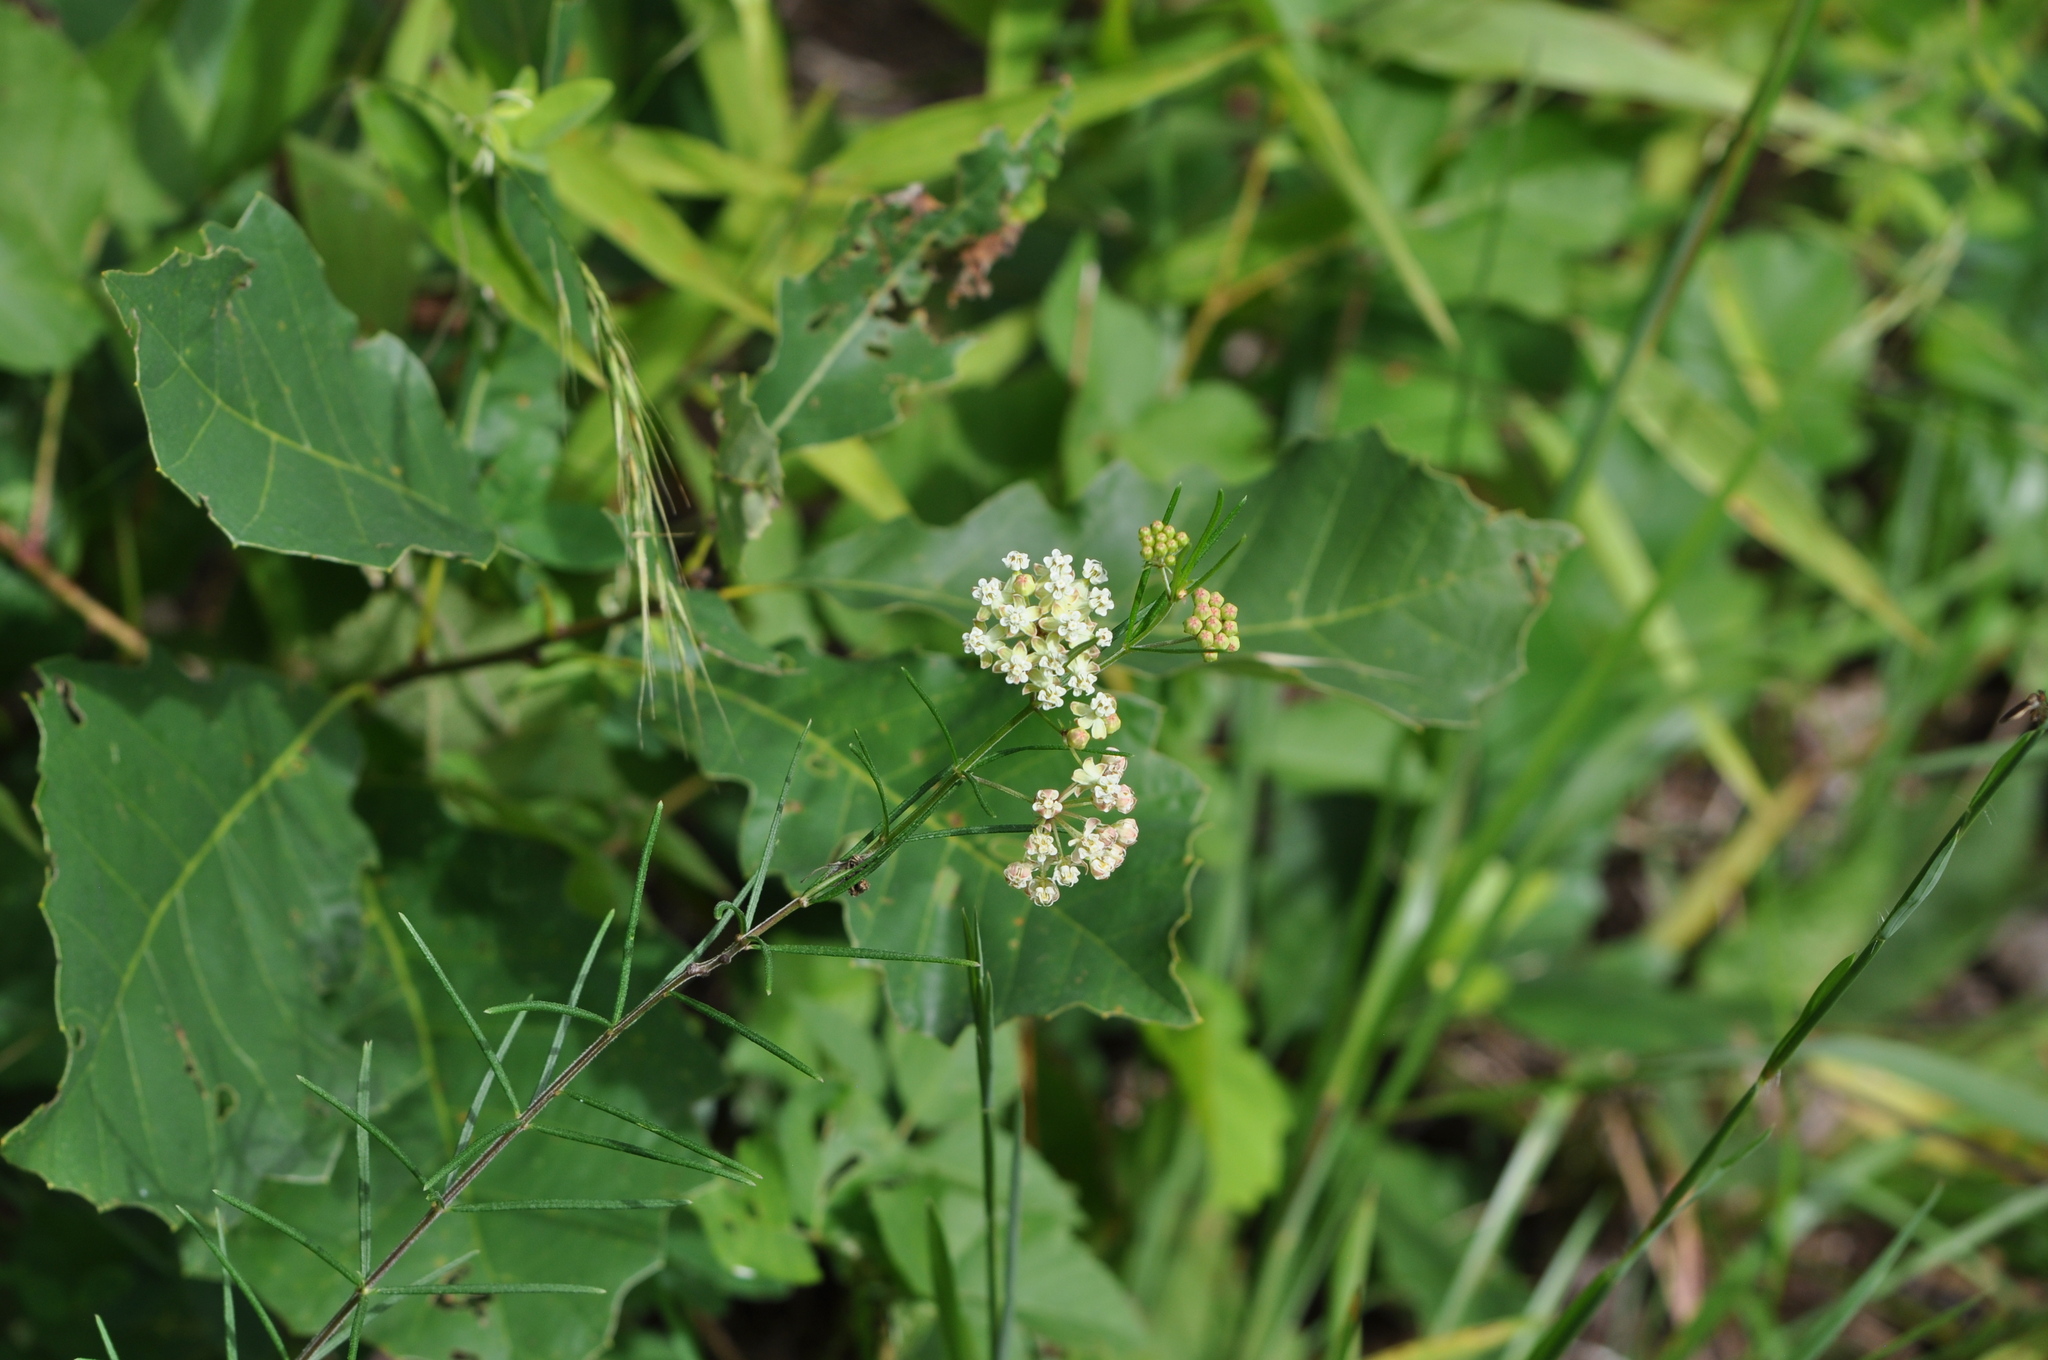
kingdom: Plantae
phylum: Tracheophyta
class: Magnoliopsida
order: Gentianales
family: Apocynaceae
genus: Asclepias
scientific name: Asclepias verticillata
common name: Eastern whorled milkweed
